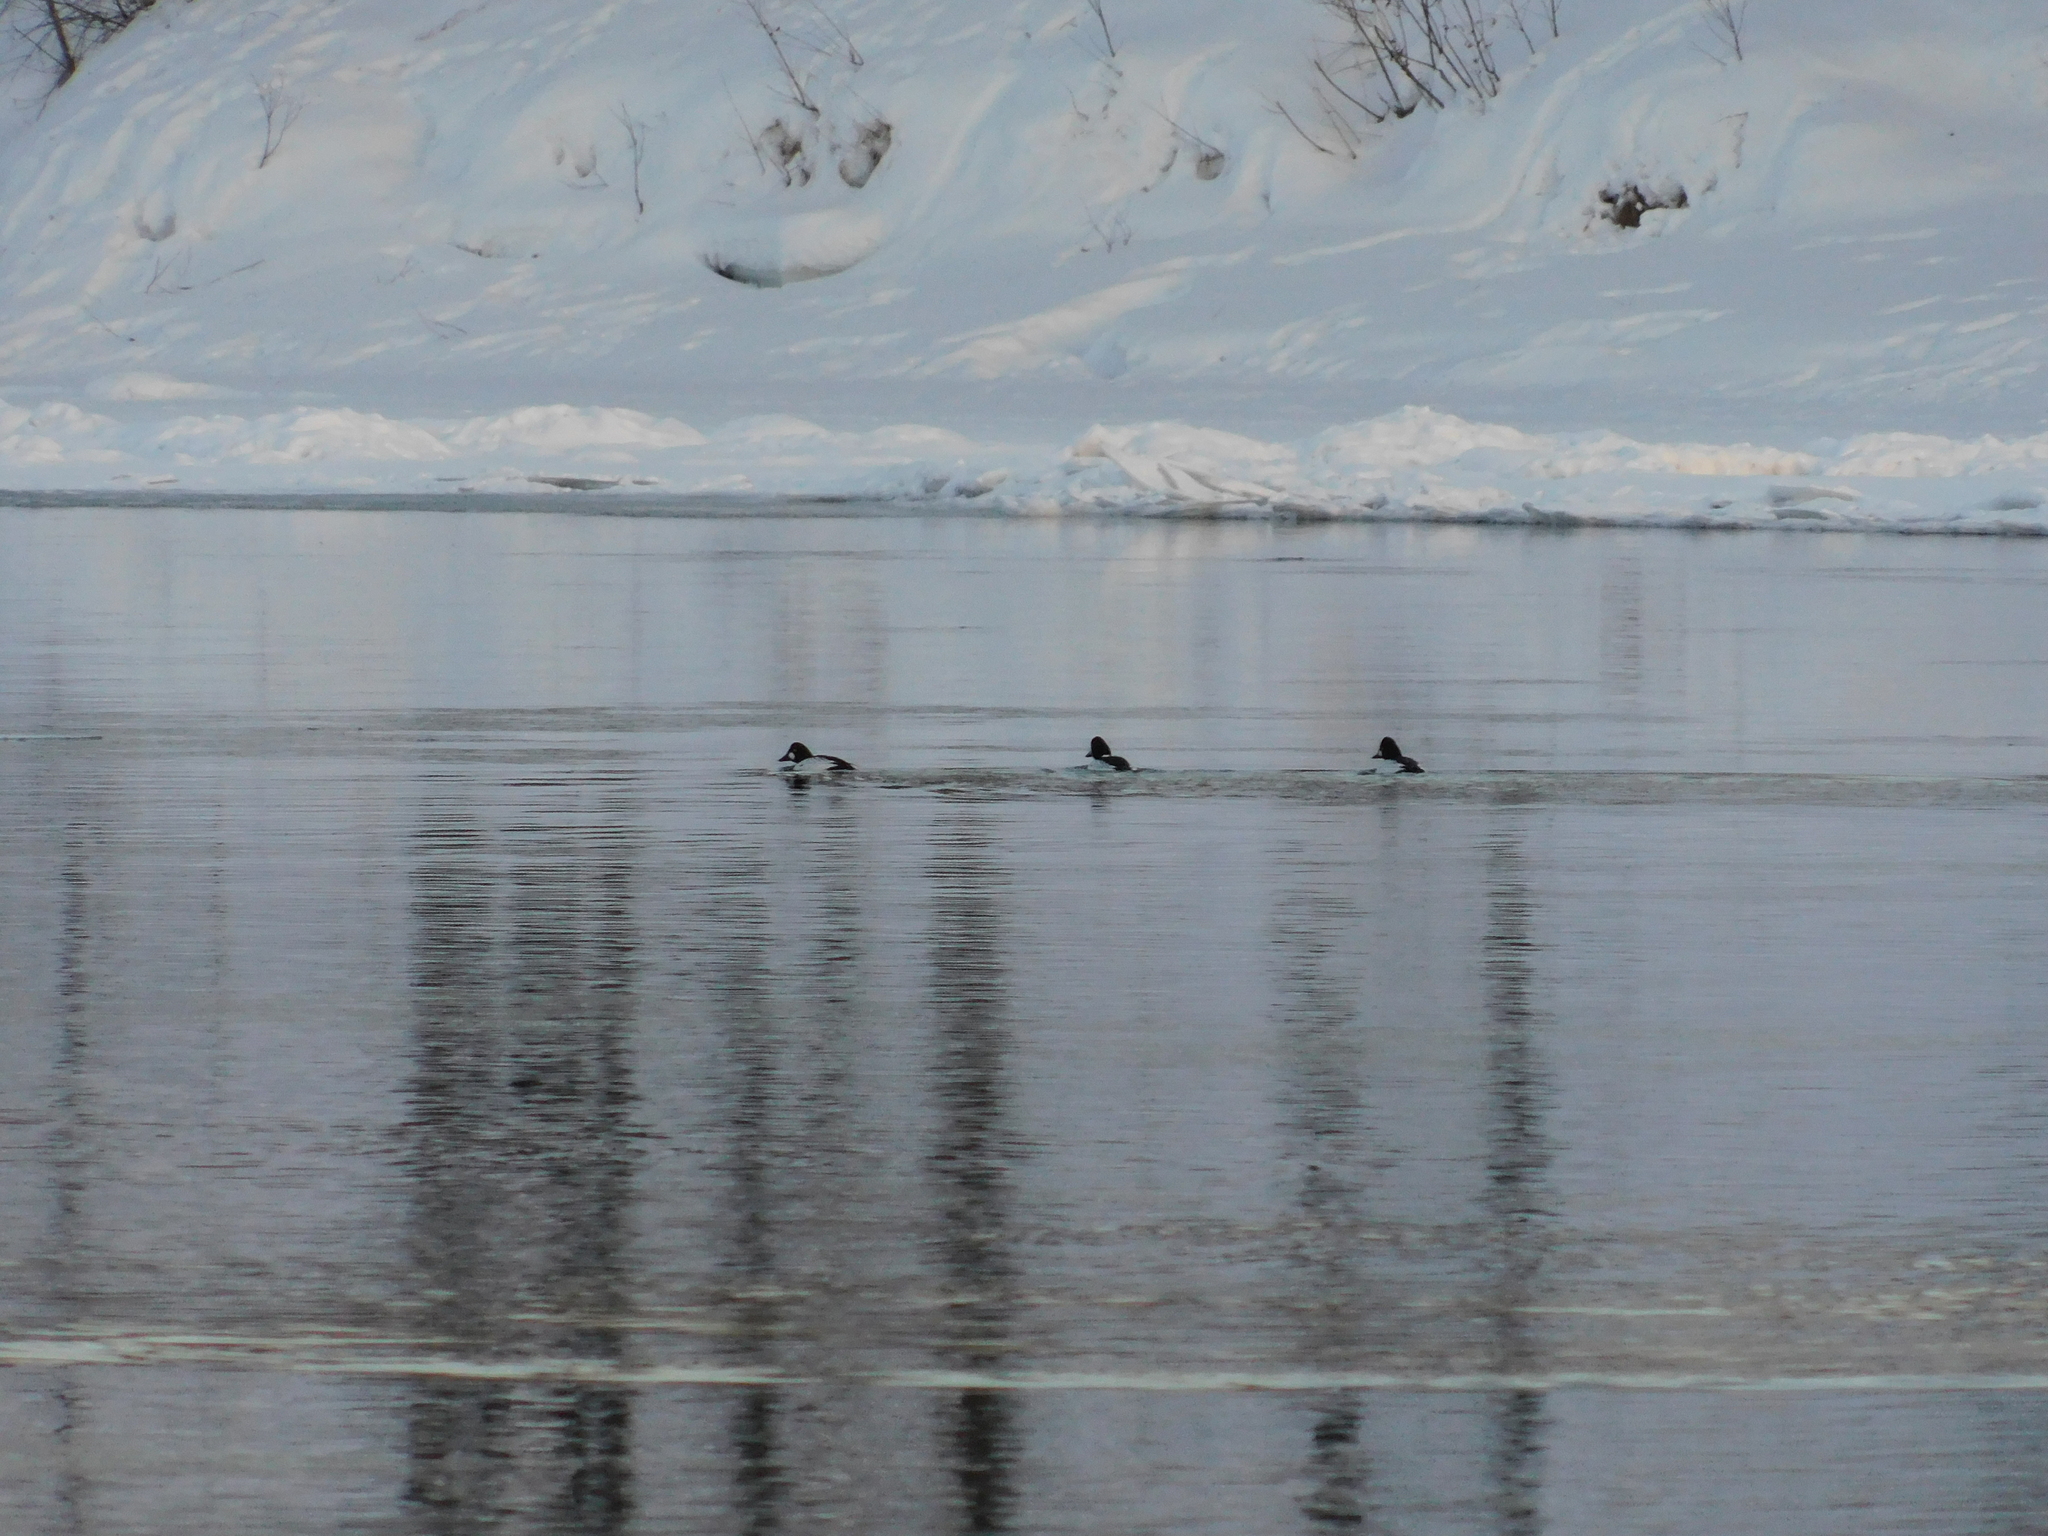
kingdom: Animalia
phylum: Chordata
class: Aves
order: Anseriformes
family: Anatidae
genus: Bucephala
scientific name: Bucephala clangula
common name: Common goldeneye
